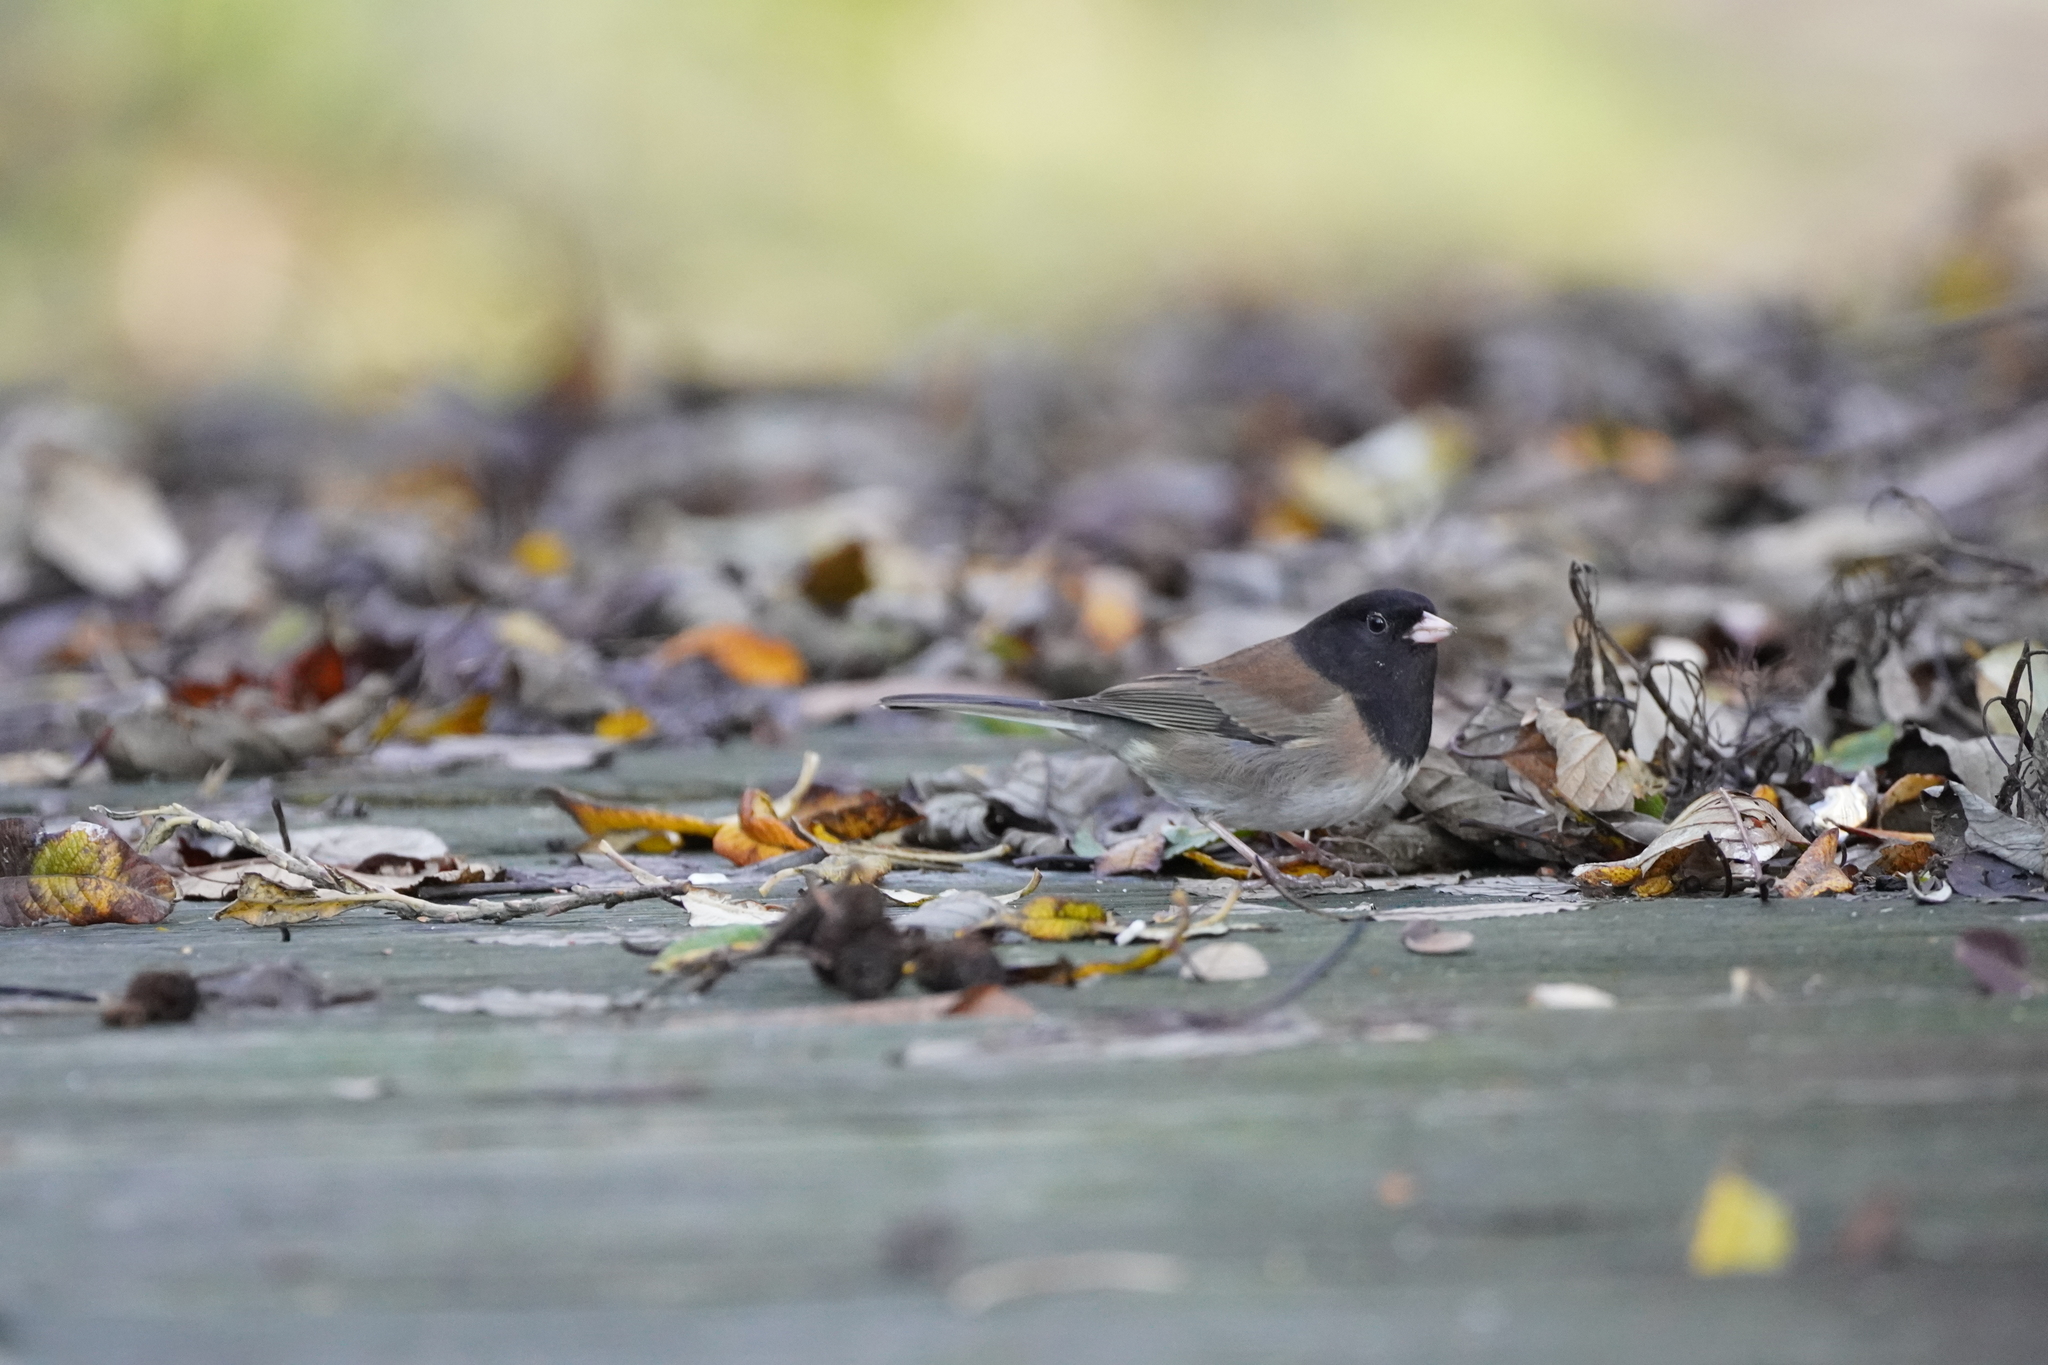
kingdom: Animalia
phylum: Chordata
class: Aves
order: Passeriformes
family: Passerellidae
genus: Junco
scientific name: Junco hyemalis
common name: Dark-eyed junco
